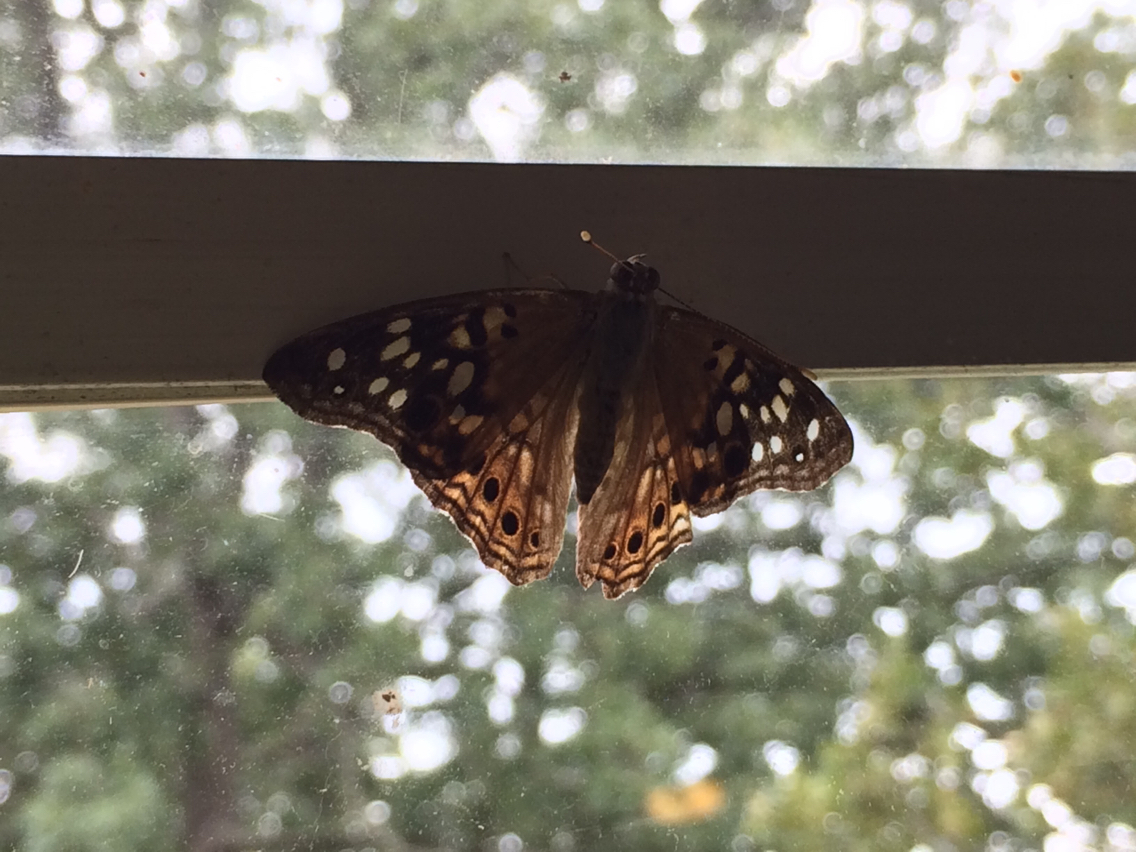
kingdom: Animalia
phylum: Arthropoda
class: Insecta
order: Lepidoptera
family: Nymphalidae
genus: Asterocampa
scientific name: Asterocampa celtis
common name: Hackberry emperor
